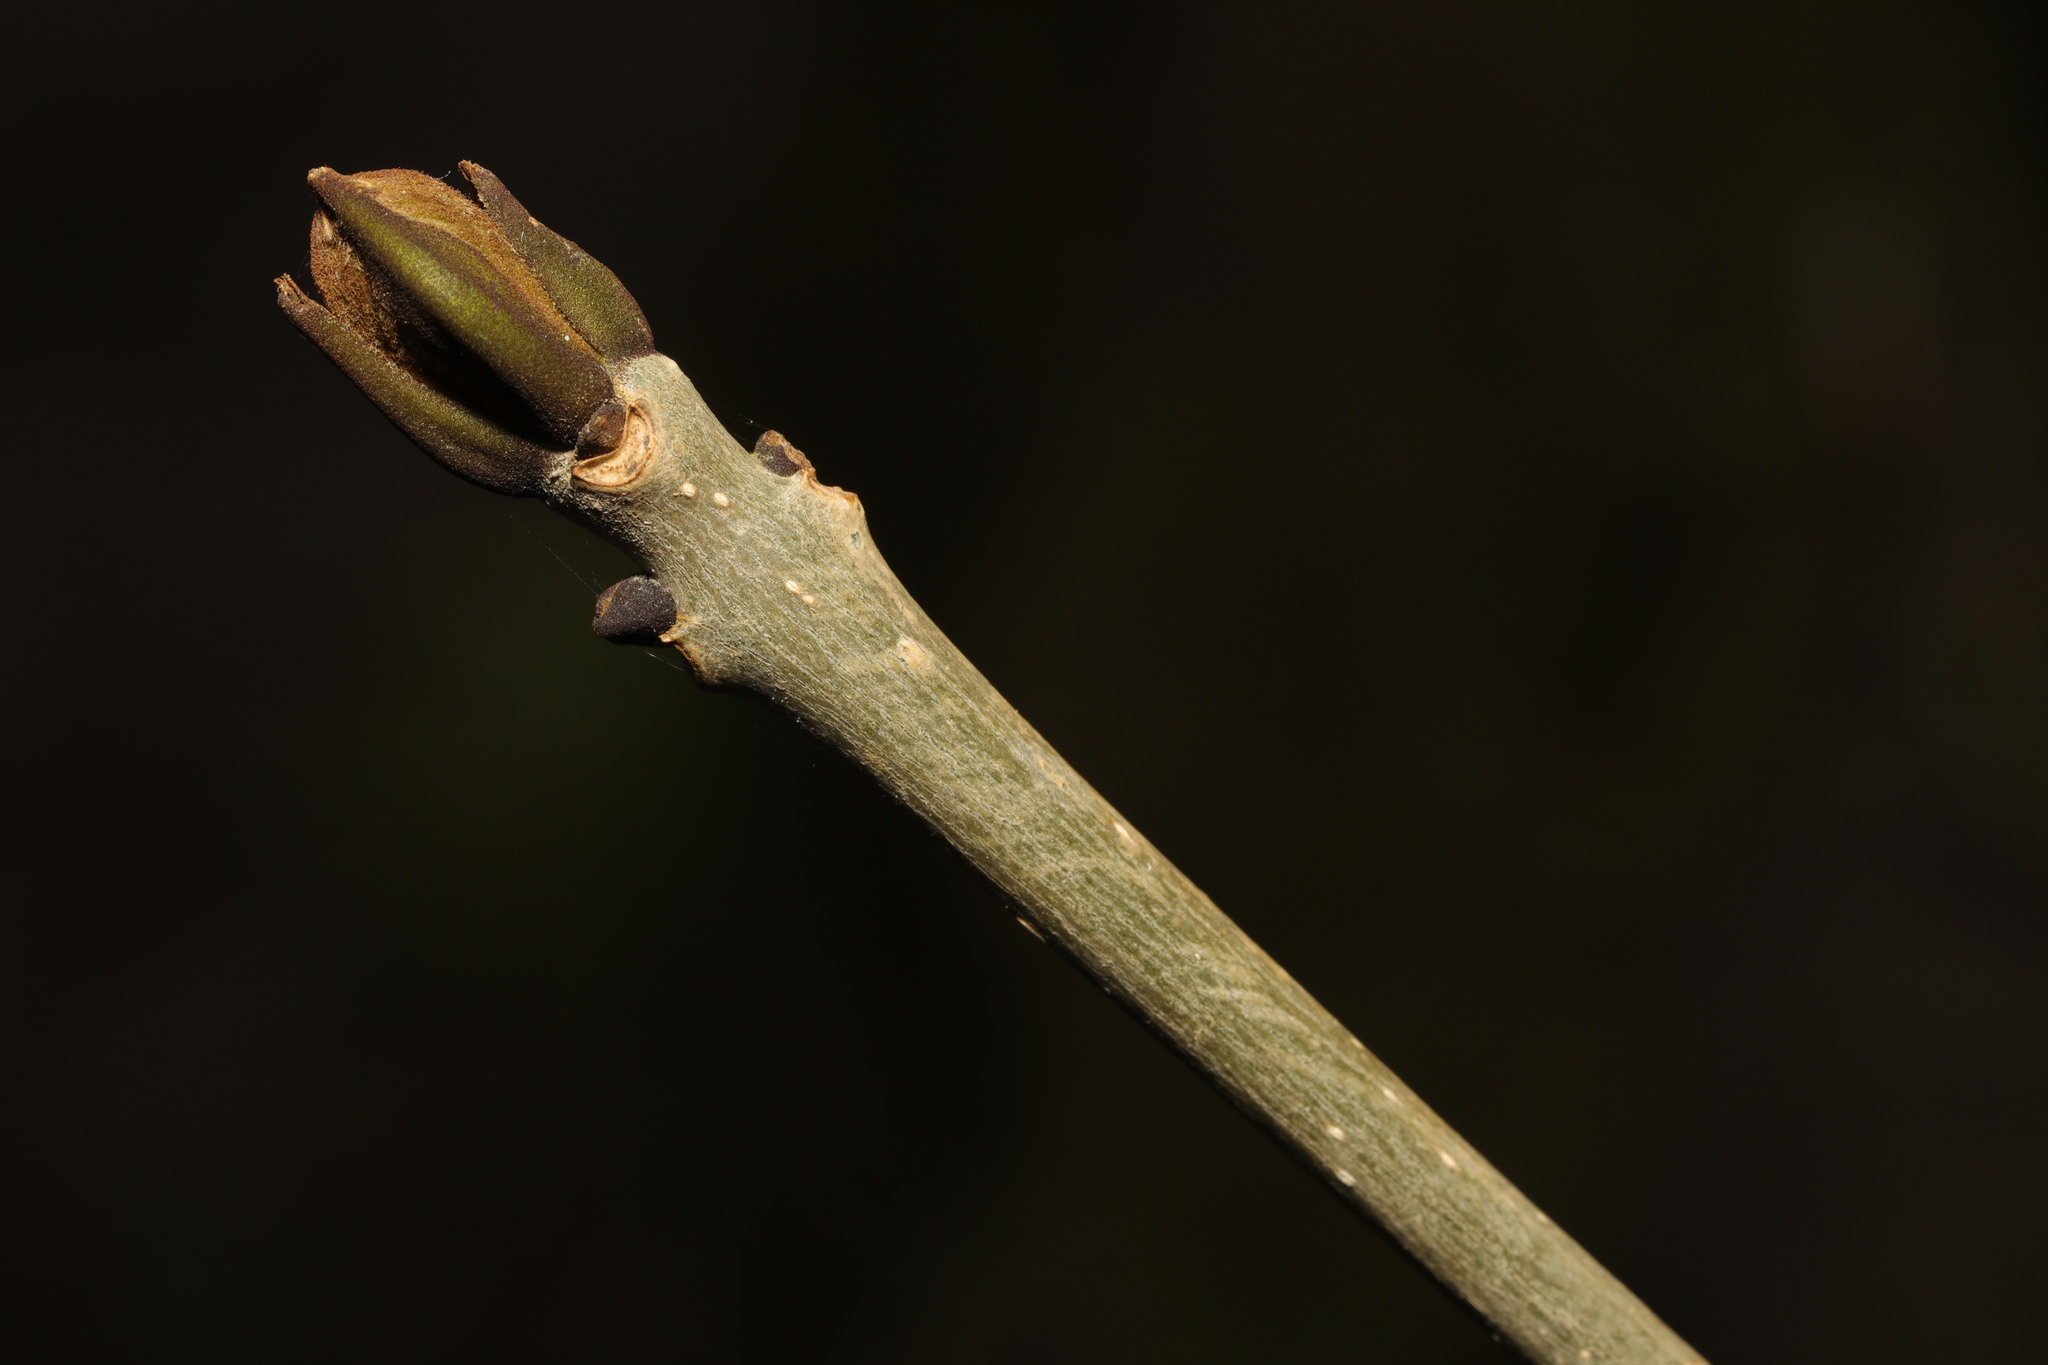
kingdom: Plantae
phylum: Tracheophyta
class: Magnoliopsida
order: Lamiales
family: Oleaceae
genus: Fraxinus
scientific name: Fraxinus excelsior
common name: European ash
